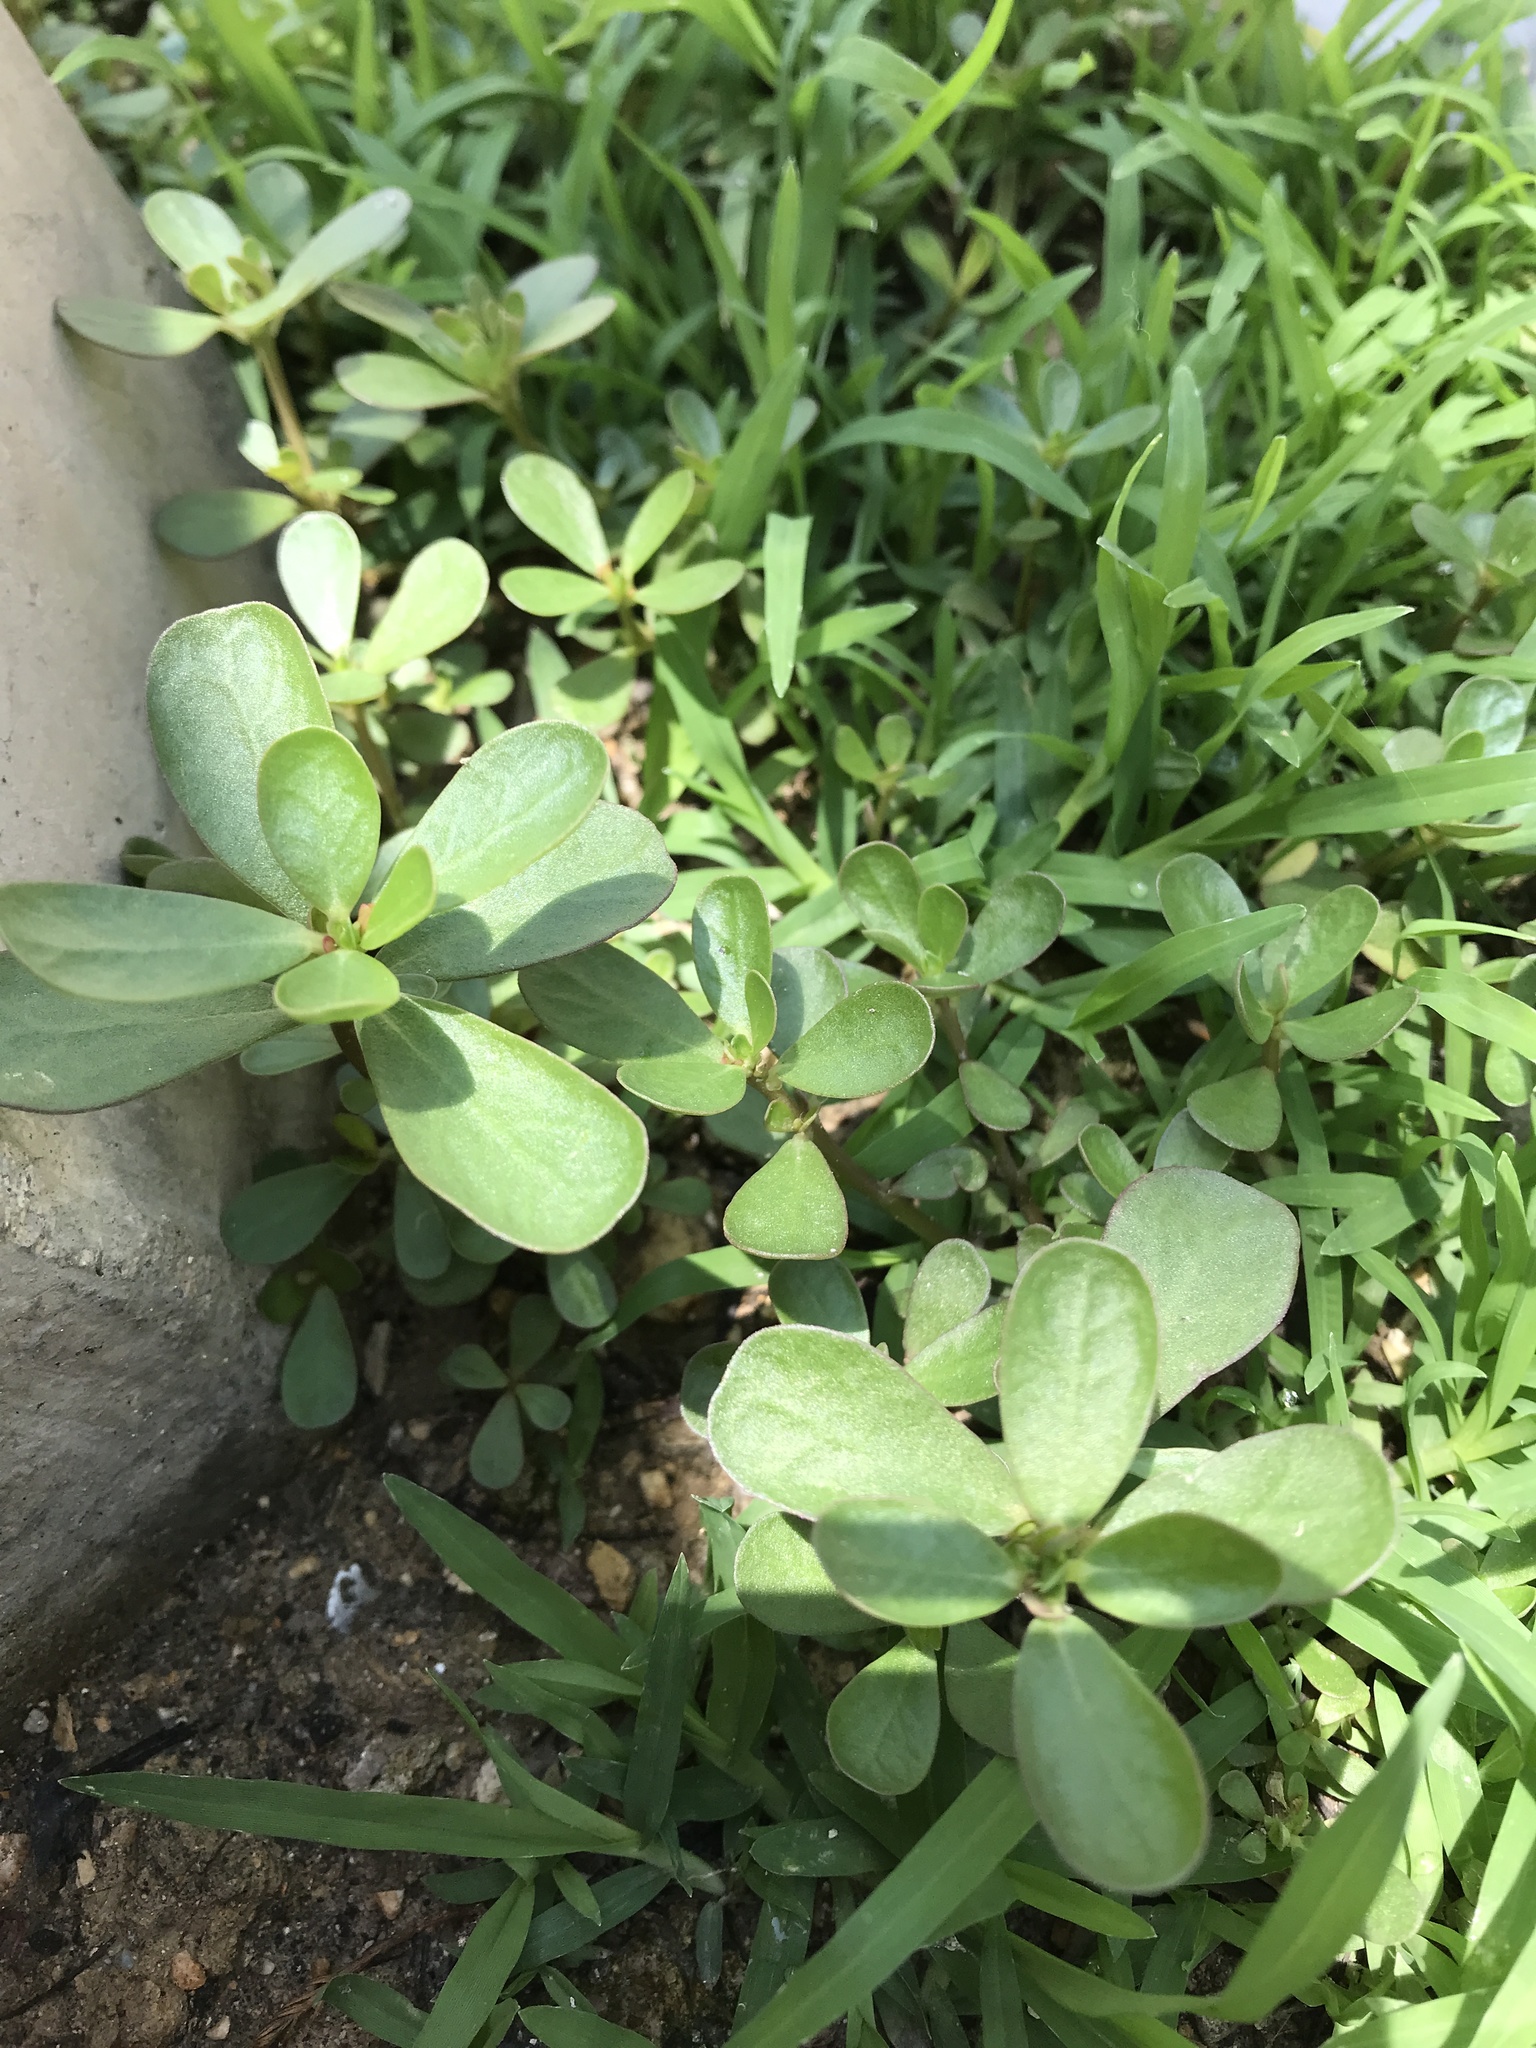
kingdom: Plantae
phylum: Tracheophyta
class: Magnoliopsida
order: Caryophyllales
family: Portulacaceae
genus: Portulaca
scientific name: Portulaca oleracea
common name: Common purslane
